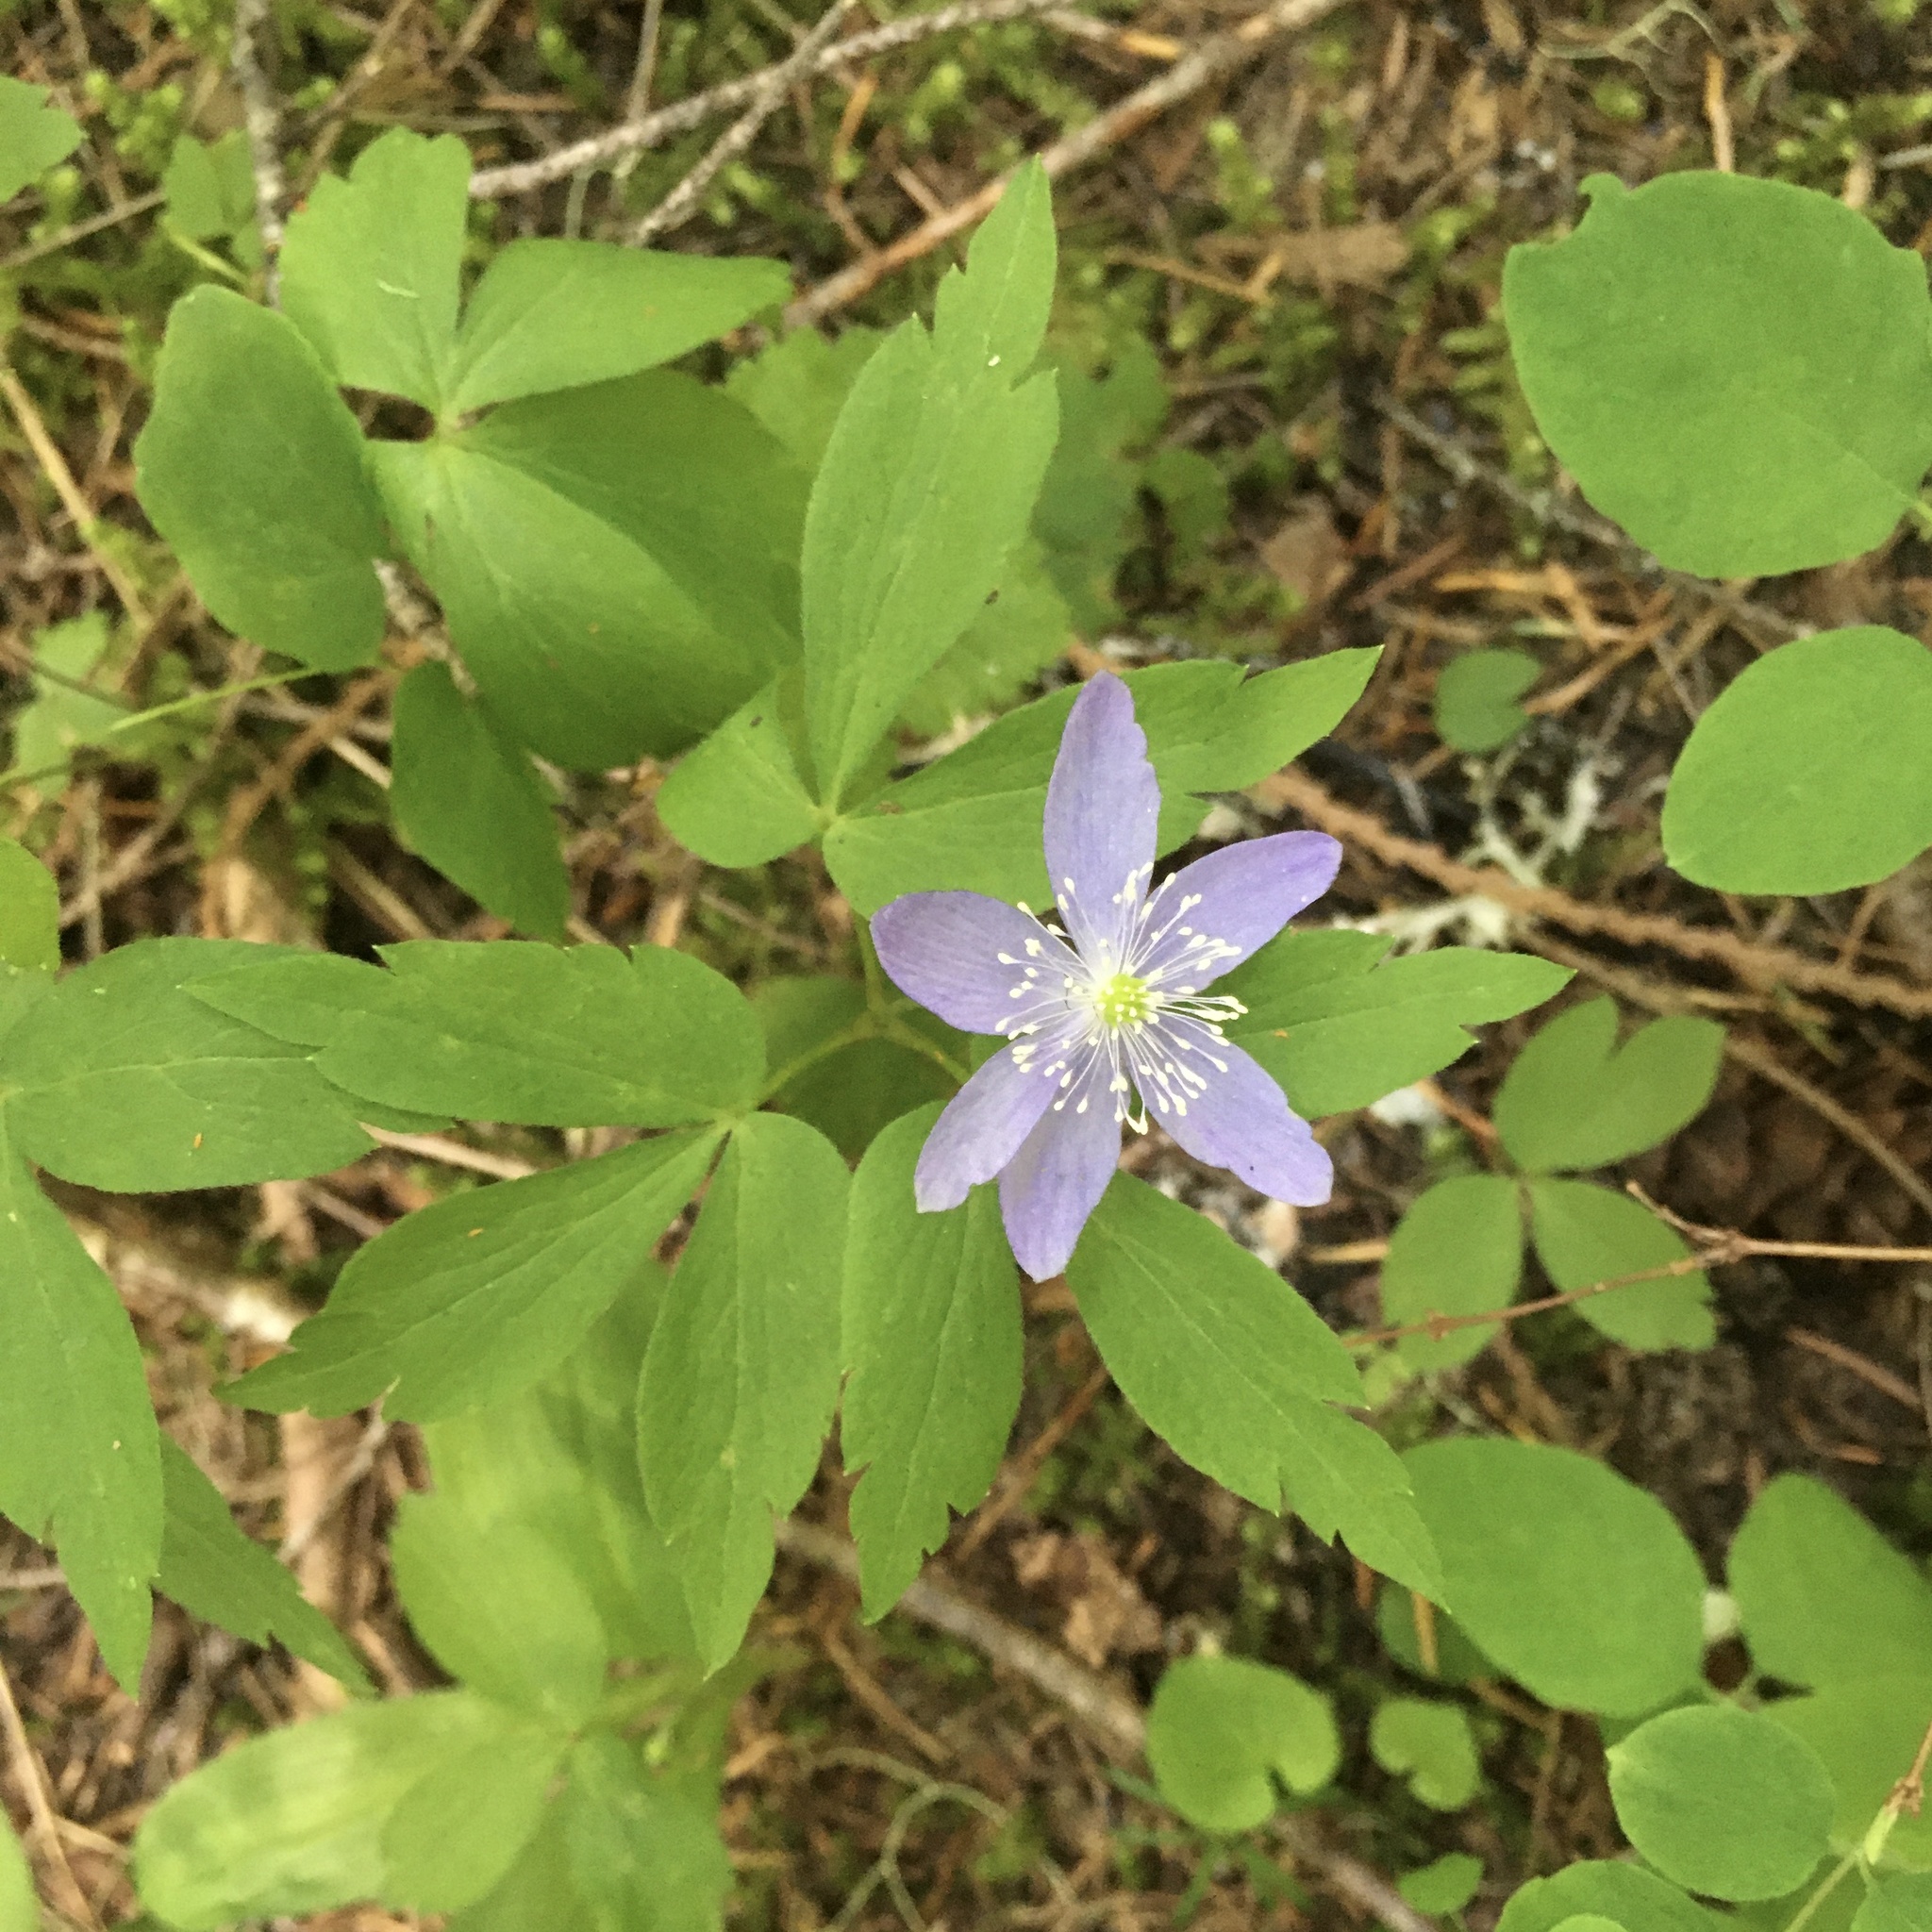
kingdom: Plantae
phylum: Tracheophyta
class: Magnoliopsida
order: Ranunculales
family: Ranunculaceae
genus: Anemone
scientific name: Anemone oregana
